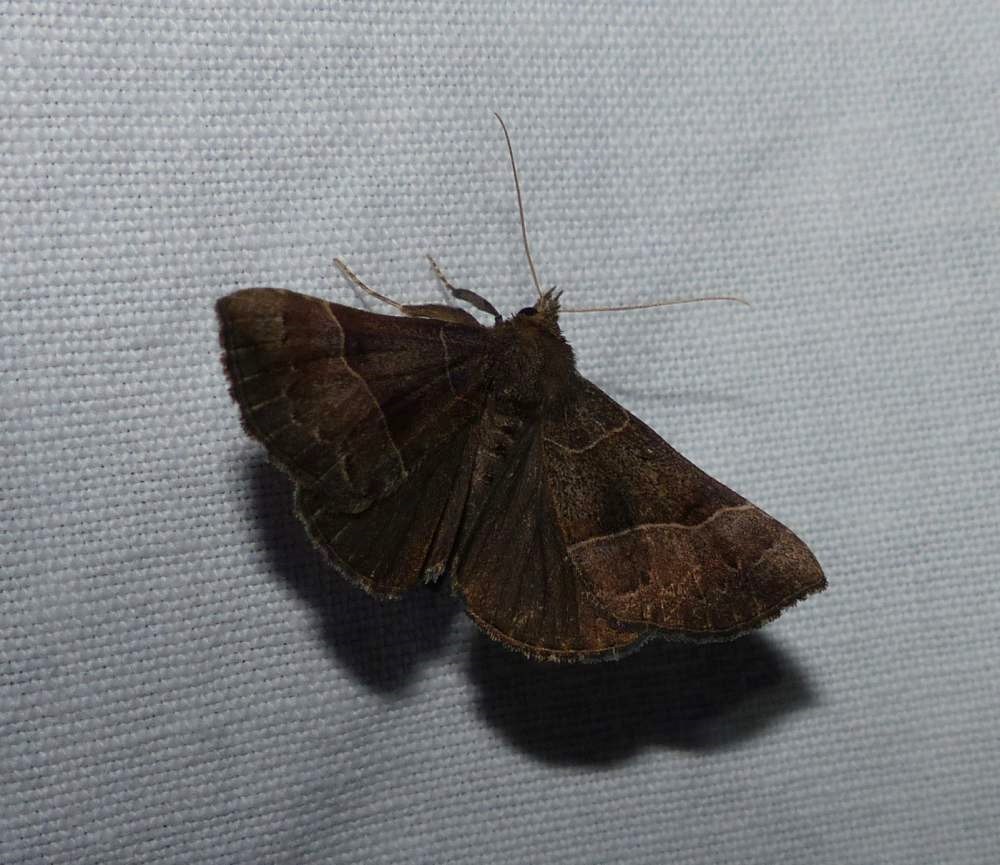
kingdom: Animalia
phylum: Arthropoda
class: Insecta
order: Lepidoptera
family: Erebidae
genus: Hypena
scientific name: Hypena deceptalis
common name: Deceptive snout
